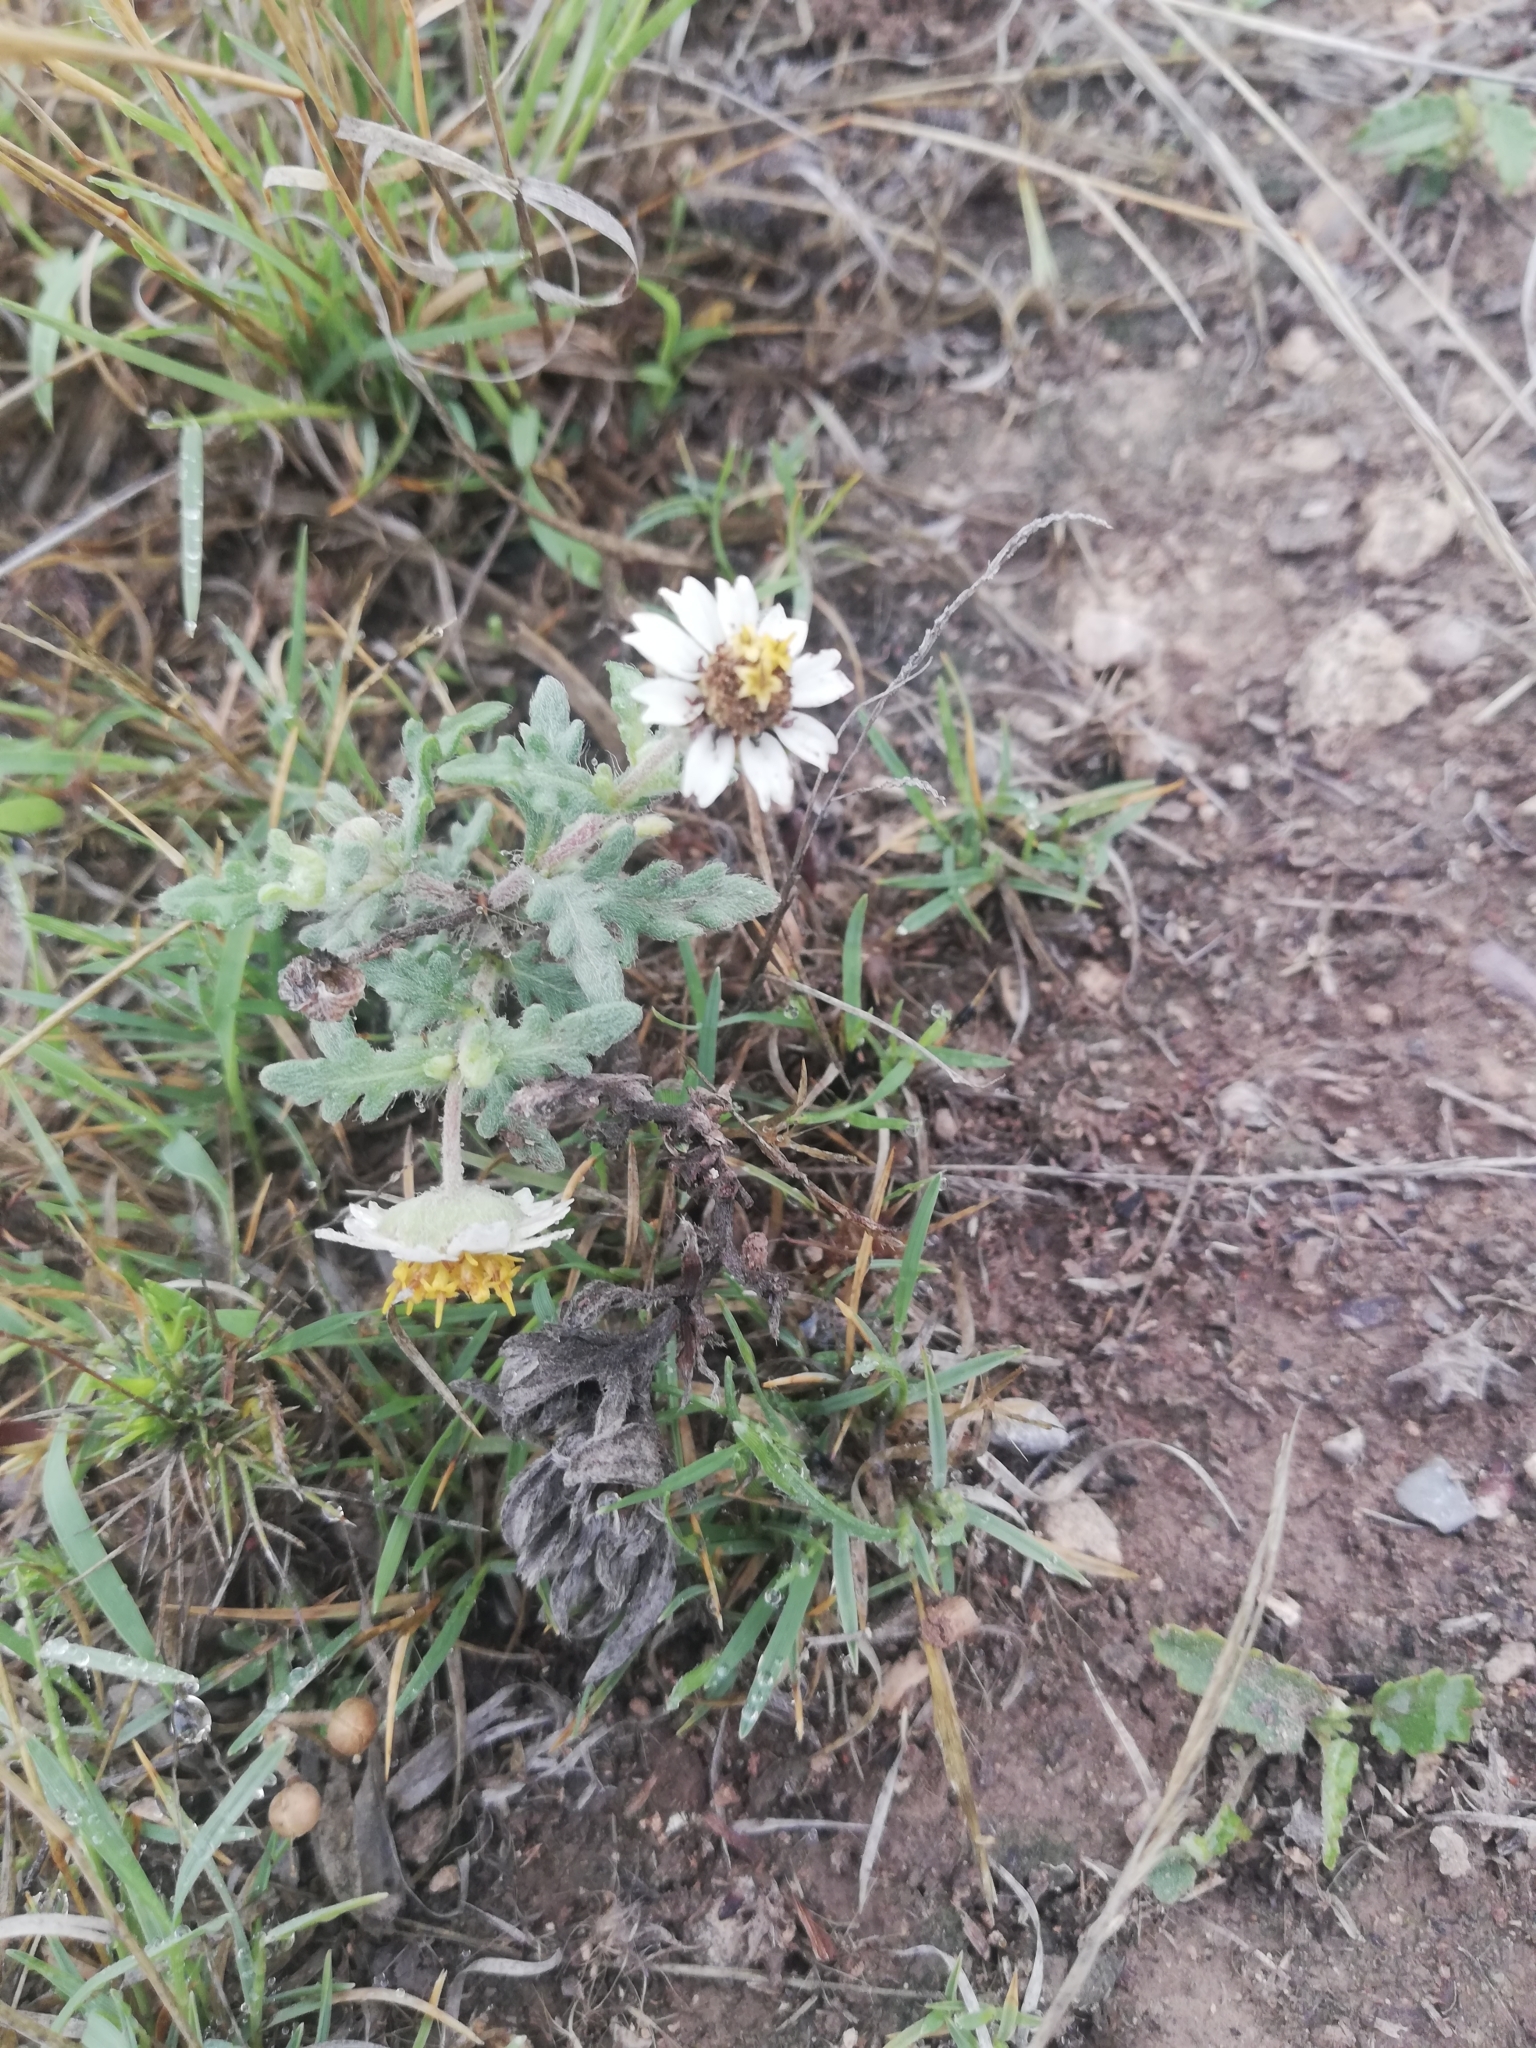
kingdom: Plantae
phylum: Tracheophyta
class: Magnoliopsida
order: Asterales
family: Asteraceae
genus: Tridax
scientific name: Tridax procumbens
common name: Coatbuttons
